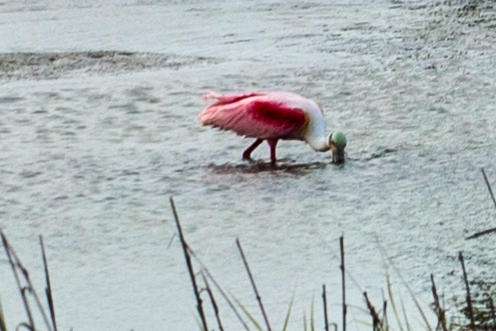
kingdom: Animalia
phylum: Chordata
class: Aves
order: Pelecaniformes
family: Threskiornithidae
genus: Platalea
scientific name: Platalea ajaja
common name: Roseate spoonbill
